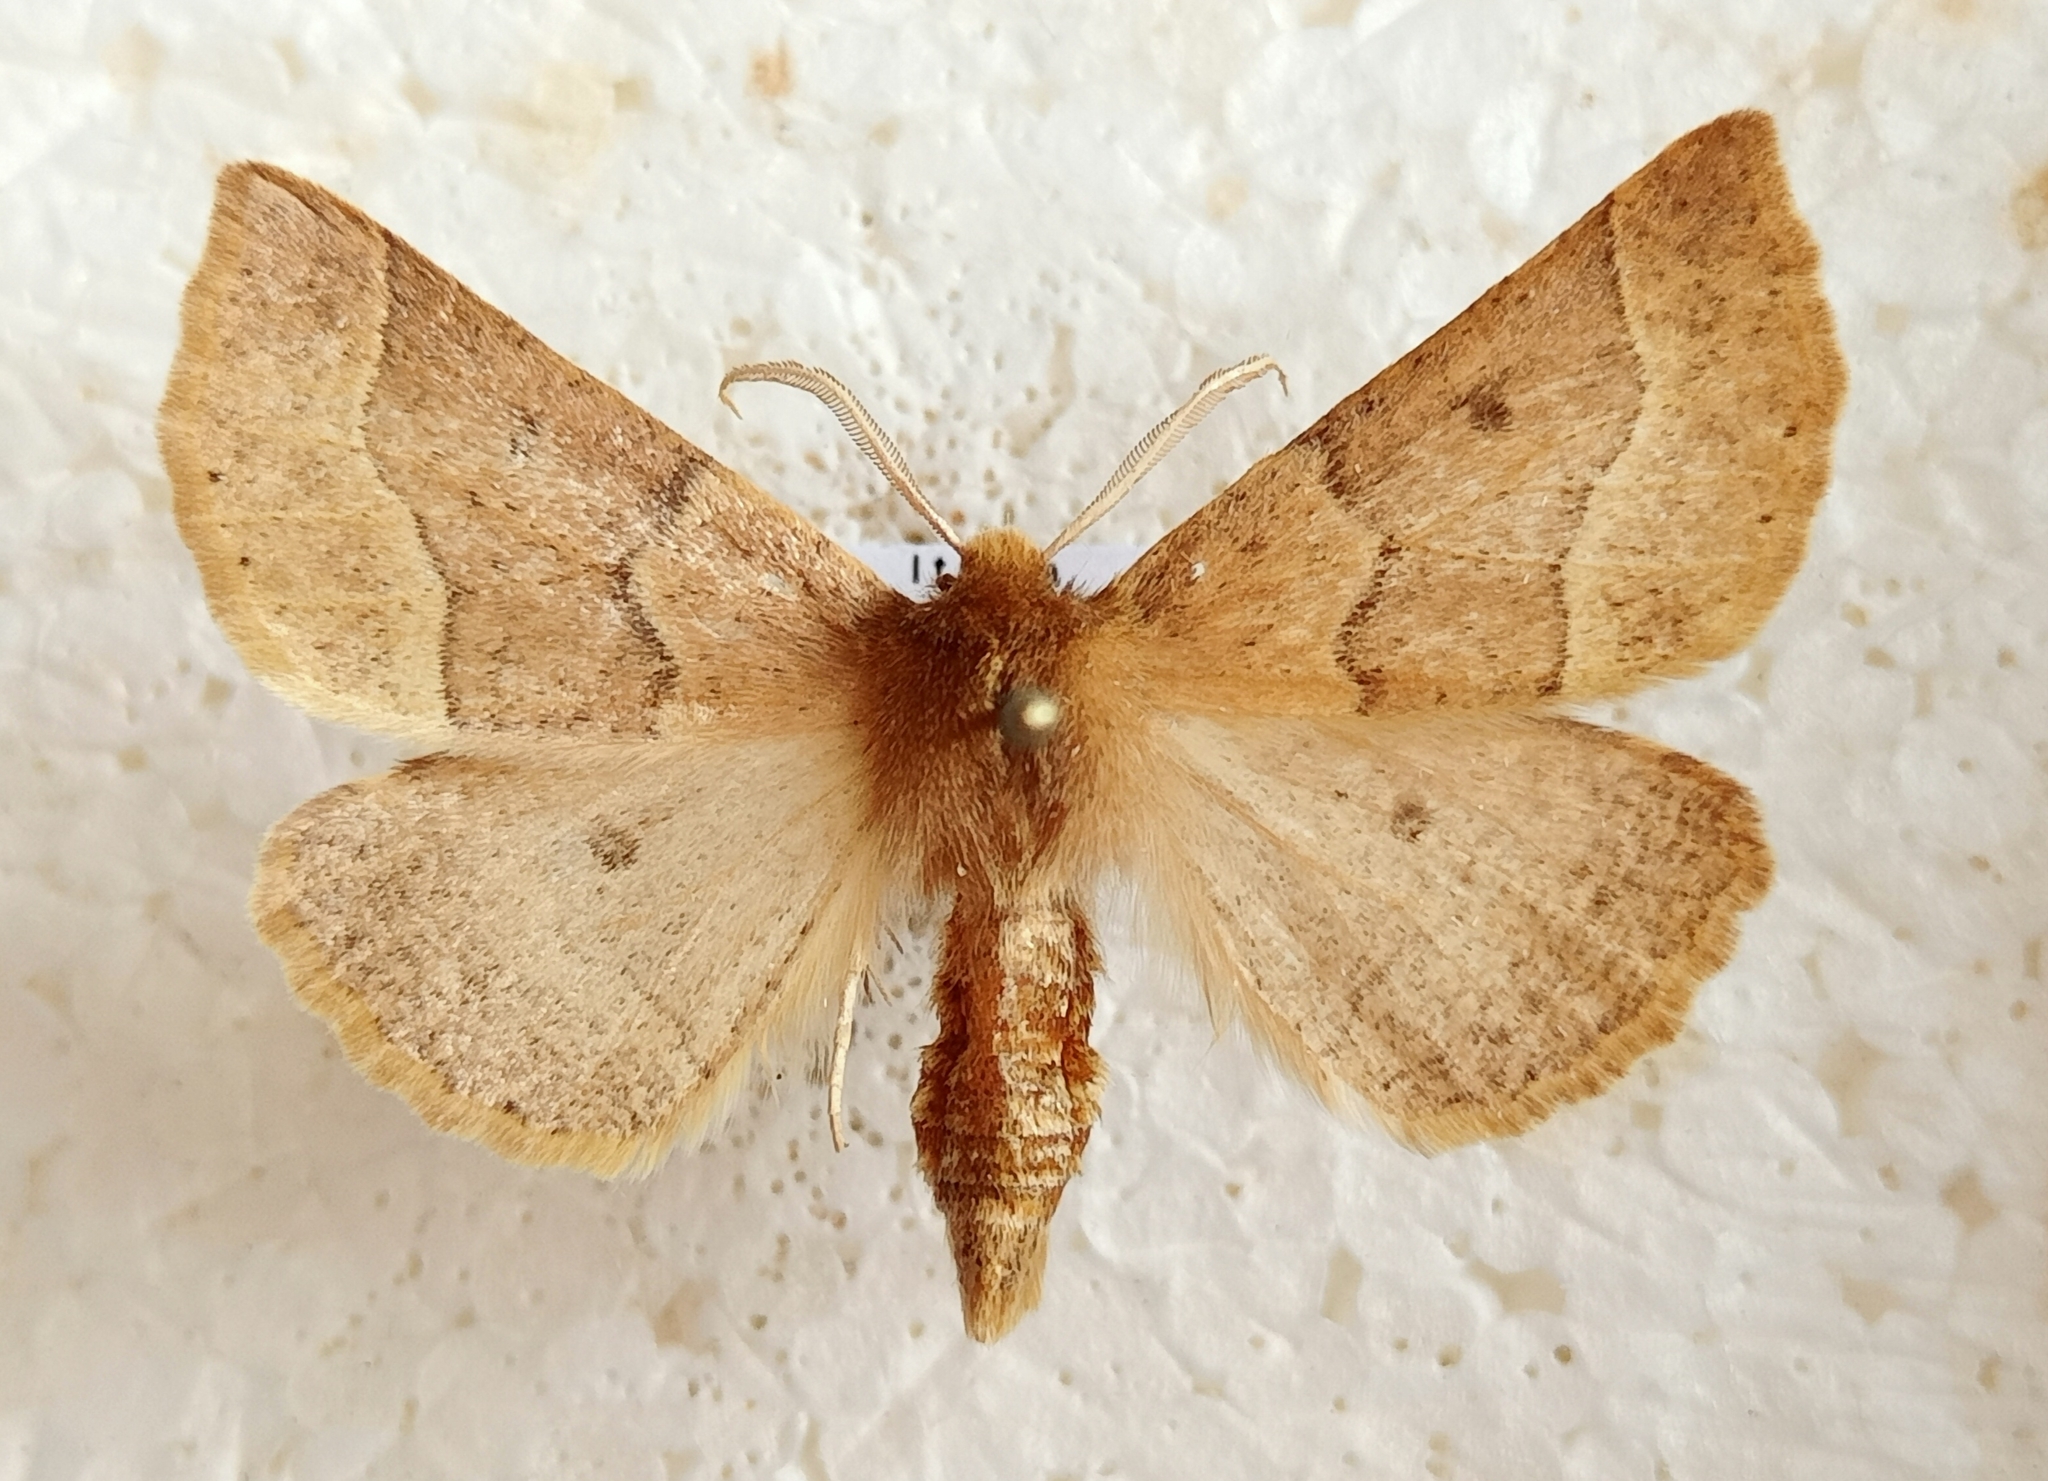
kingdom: Animalia
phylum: Arthropoda
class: Insecta
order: Lepidoptera
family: Geometridae
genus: Crocallis
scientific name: Crocallis tusciaria
